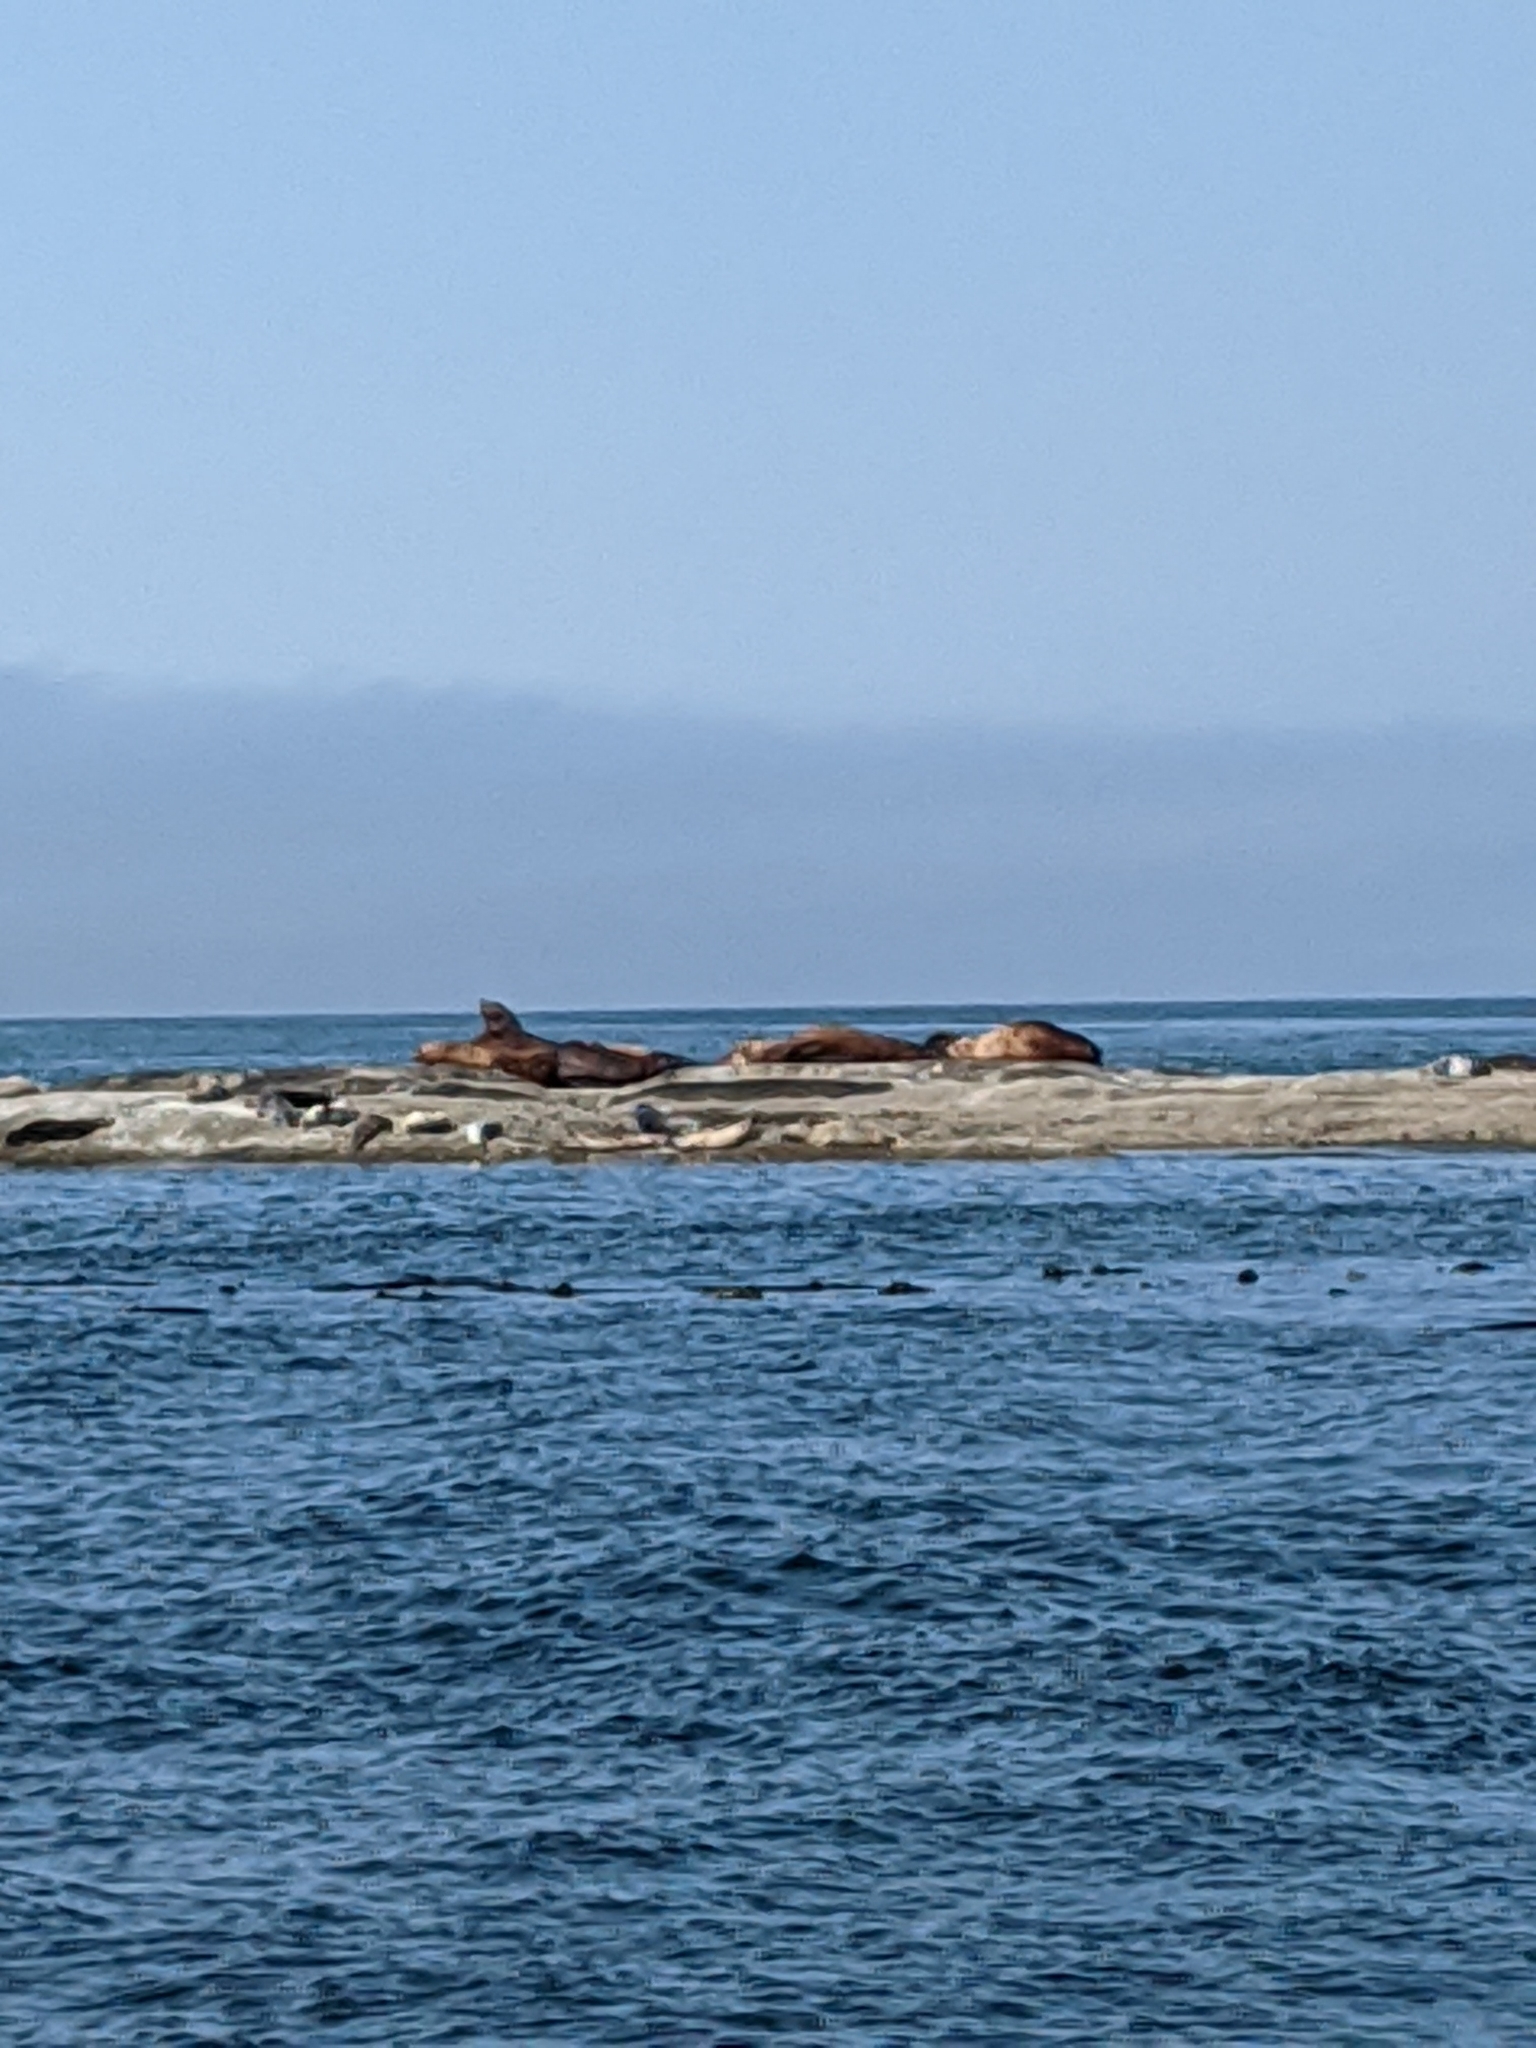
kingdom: Animalia
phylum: Chordata
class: Mammalia
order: Carnivora
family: Otariidae
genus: Eumetopias
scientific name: Eumetopias jubatus
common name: Steller sea lion
